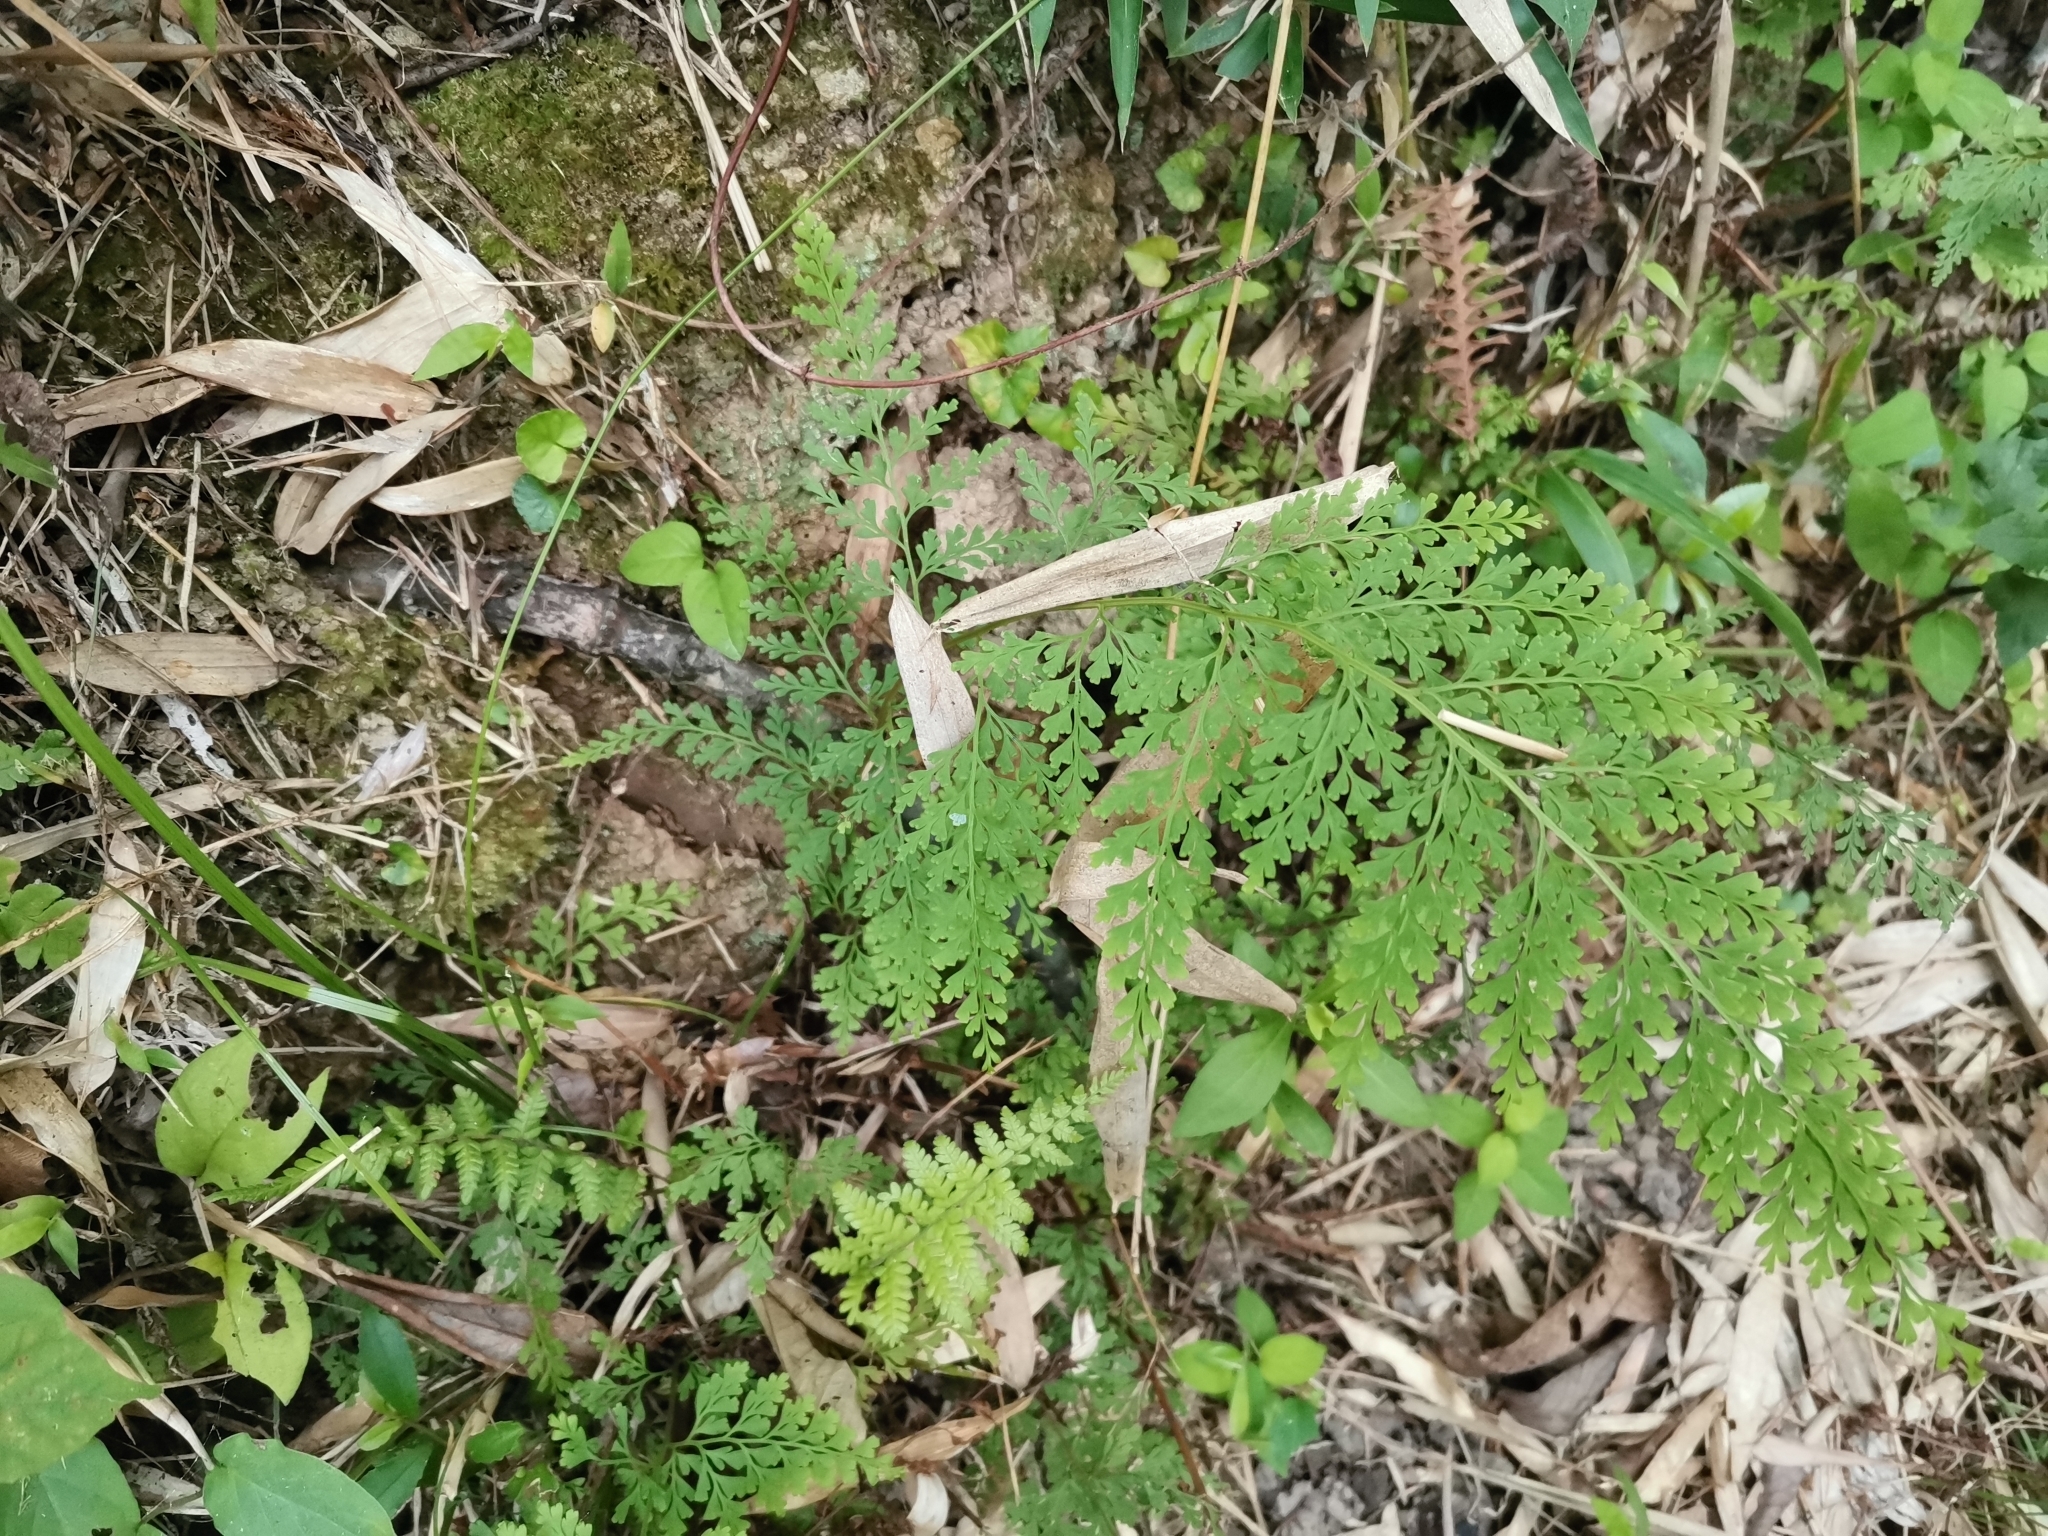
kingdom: Plantae
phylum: Tracheophyta
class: Polypodiopsida
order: Polypodiales
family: Lindsaeaceae
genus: Odontosoria
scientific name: Odontosoria chinensis
